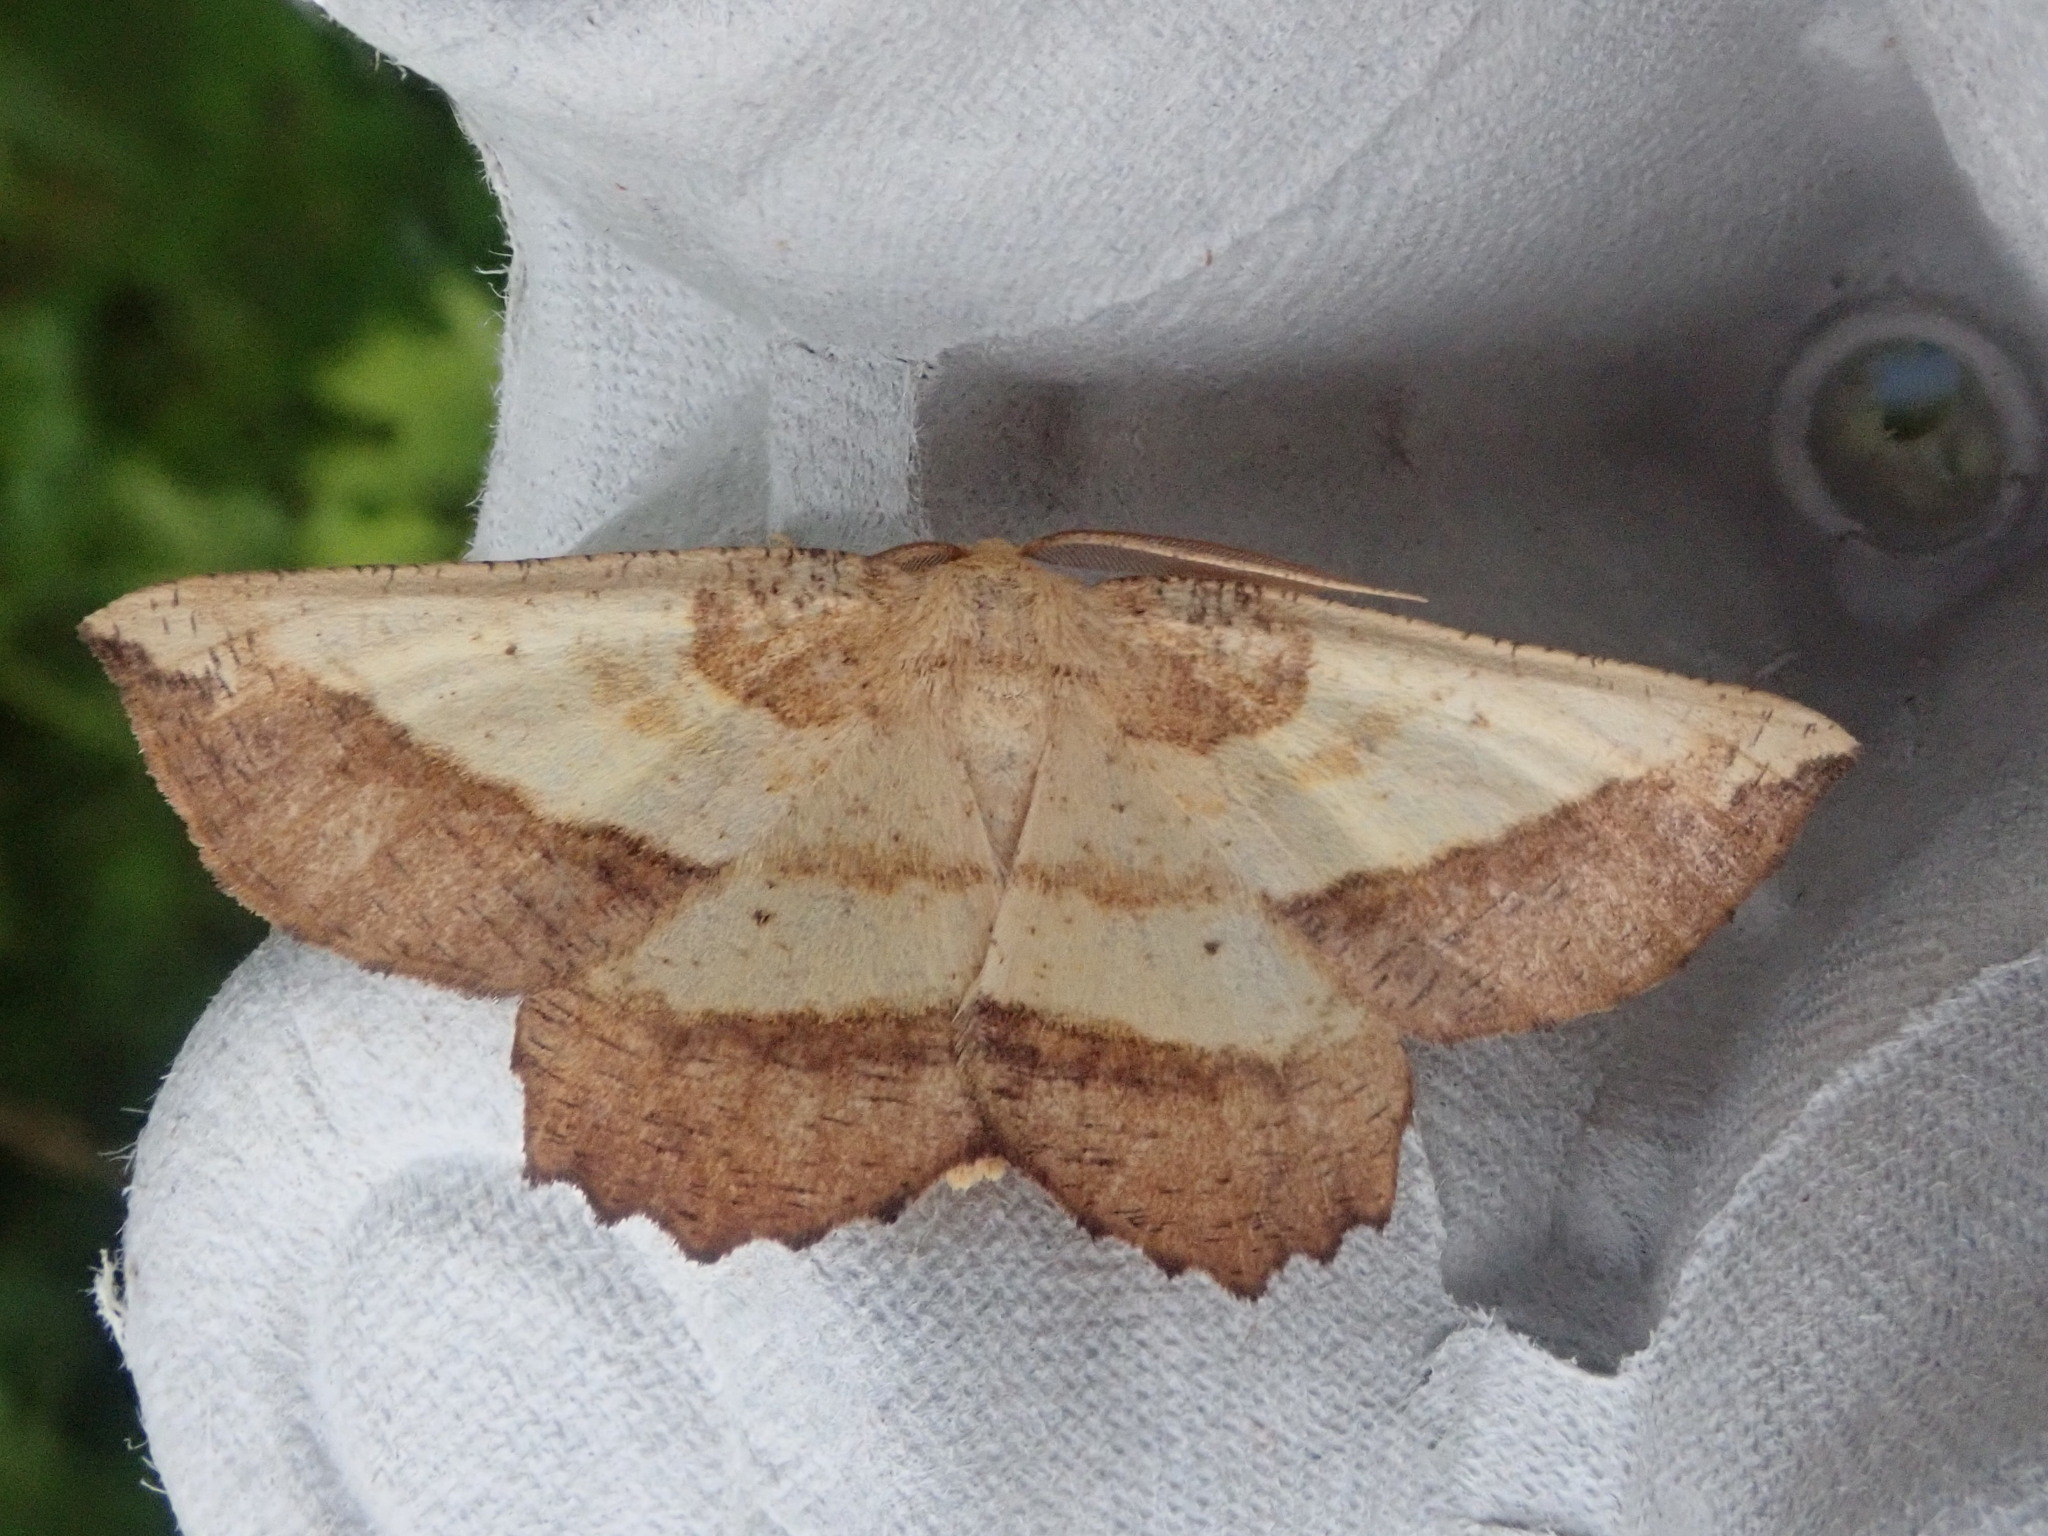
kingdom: Animalia
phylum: Arthropoda
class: Insecta
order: Lepidoptera
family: Geometridae
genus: Euchlaena
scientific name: Euchlaena serrata
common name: Saw wing
